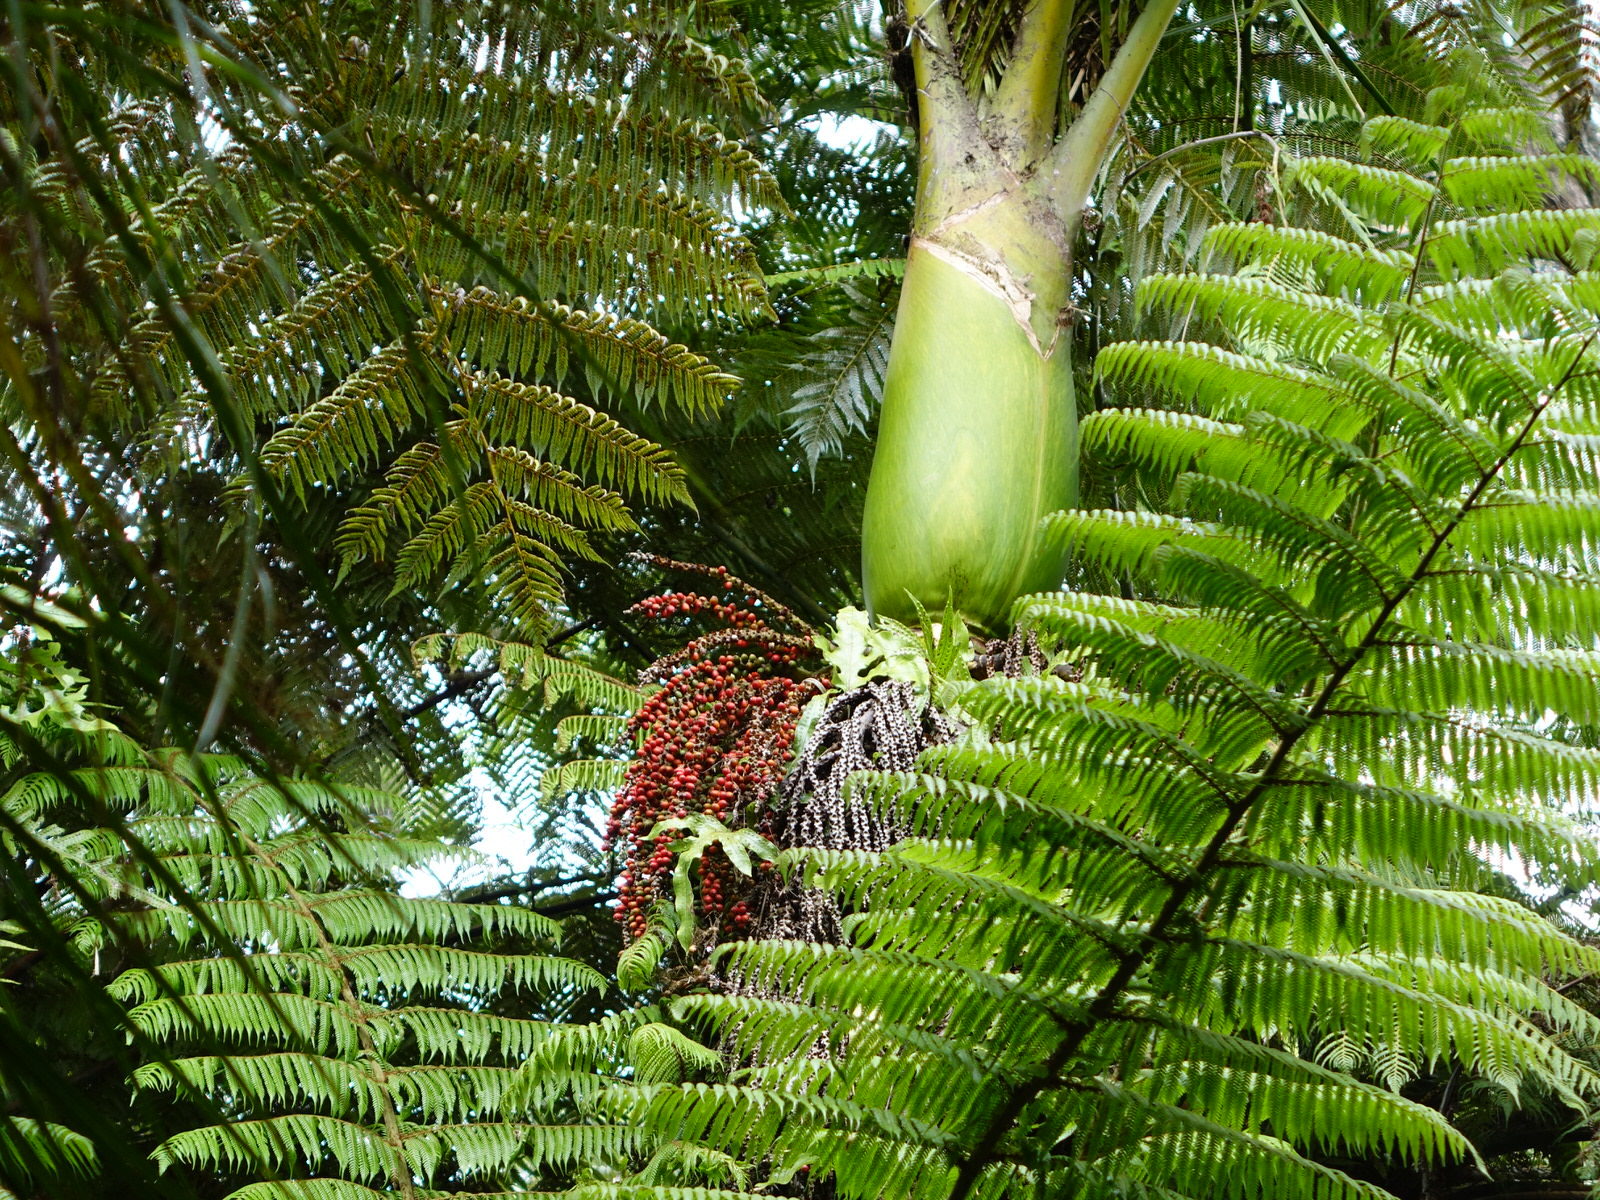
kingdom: Plantae
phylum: Tracheophyta
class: Liliopsida
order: Arecales
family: Arecaceae
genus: Rhopalostylis
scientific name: Rhopalostylis sapida
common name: Feather-duster palm
